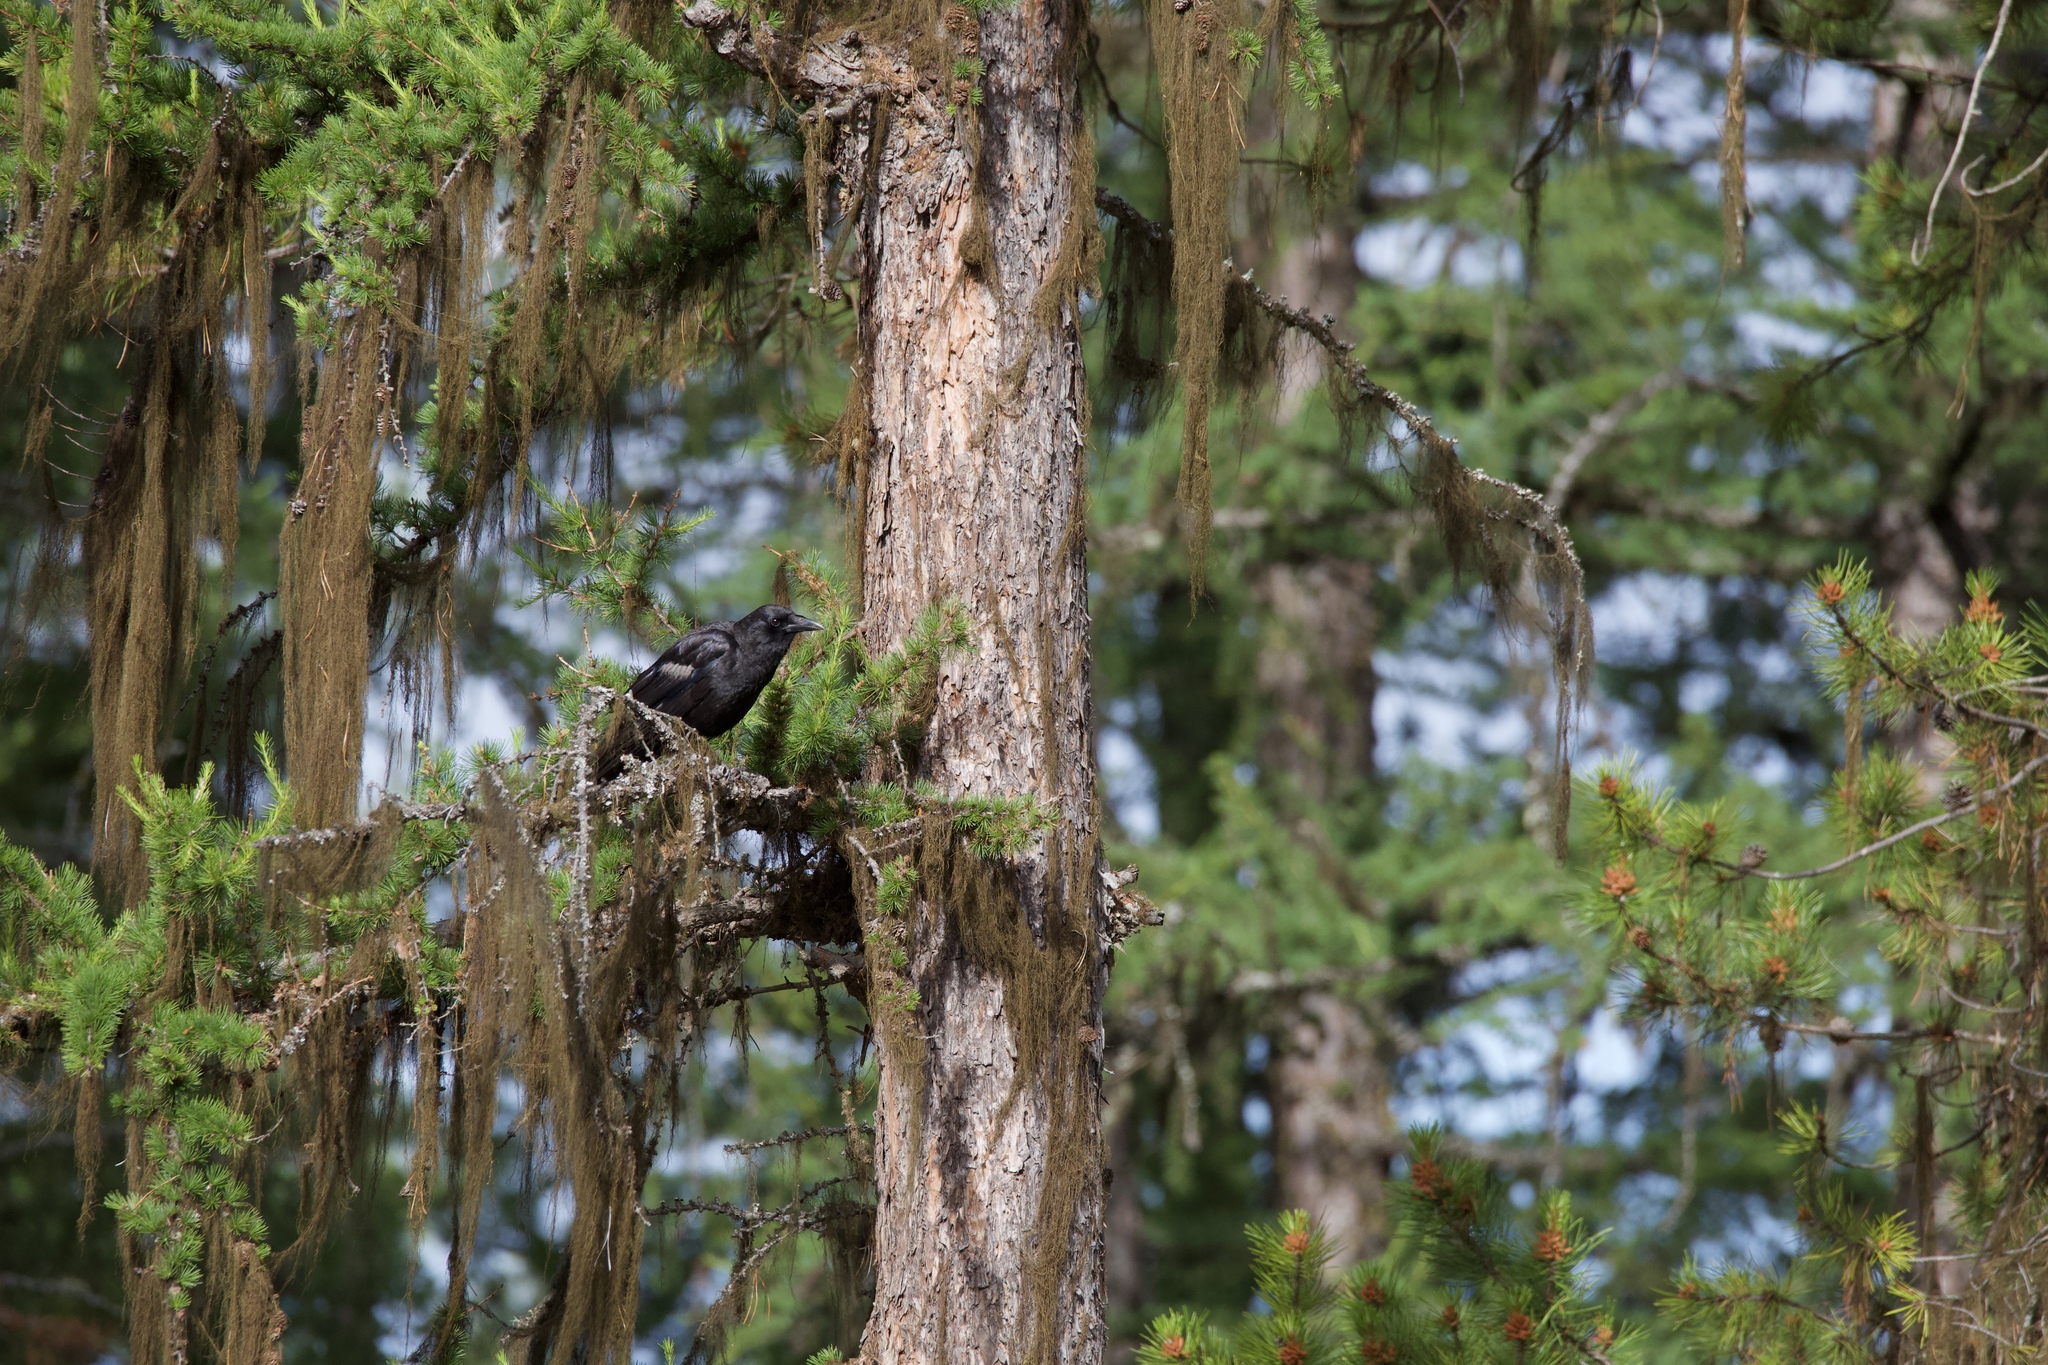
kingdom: Animalia
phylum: Chordata
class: Aves
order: Passeriformes
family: Corvidae
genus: Corvus
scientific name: Corvus corax
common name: Common raven
